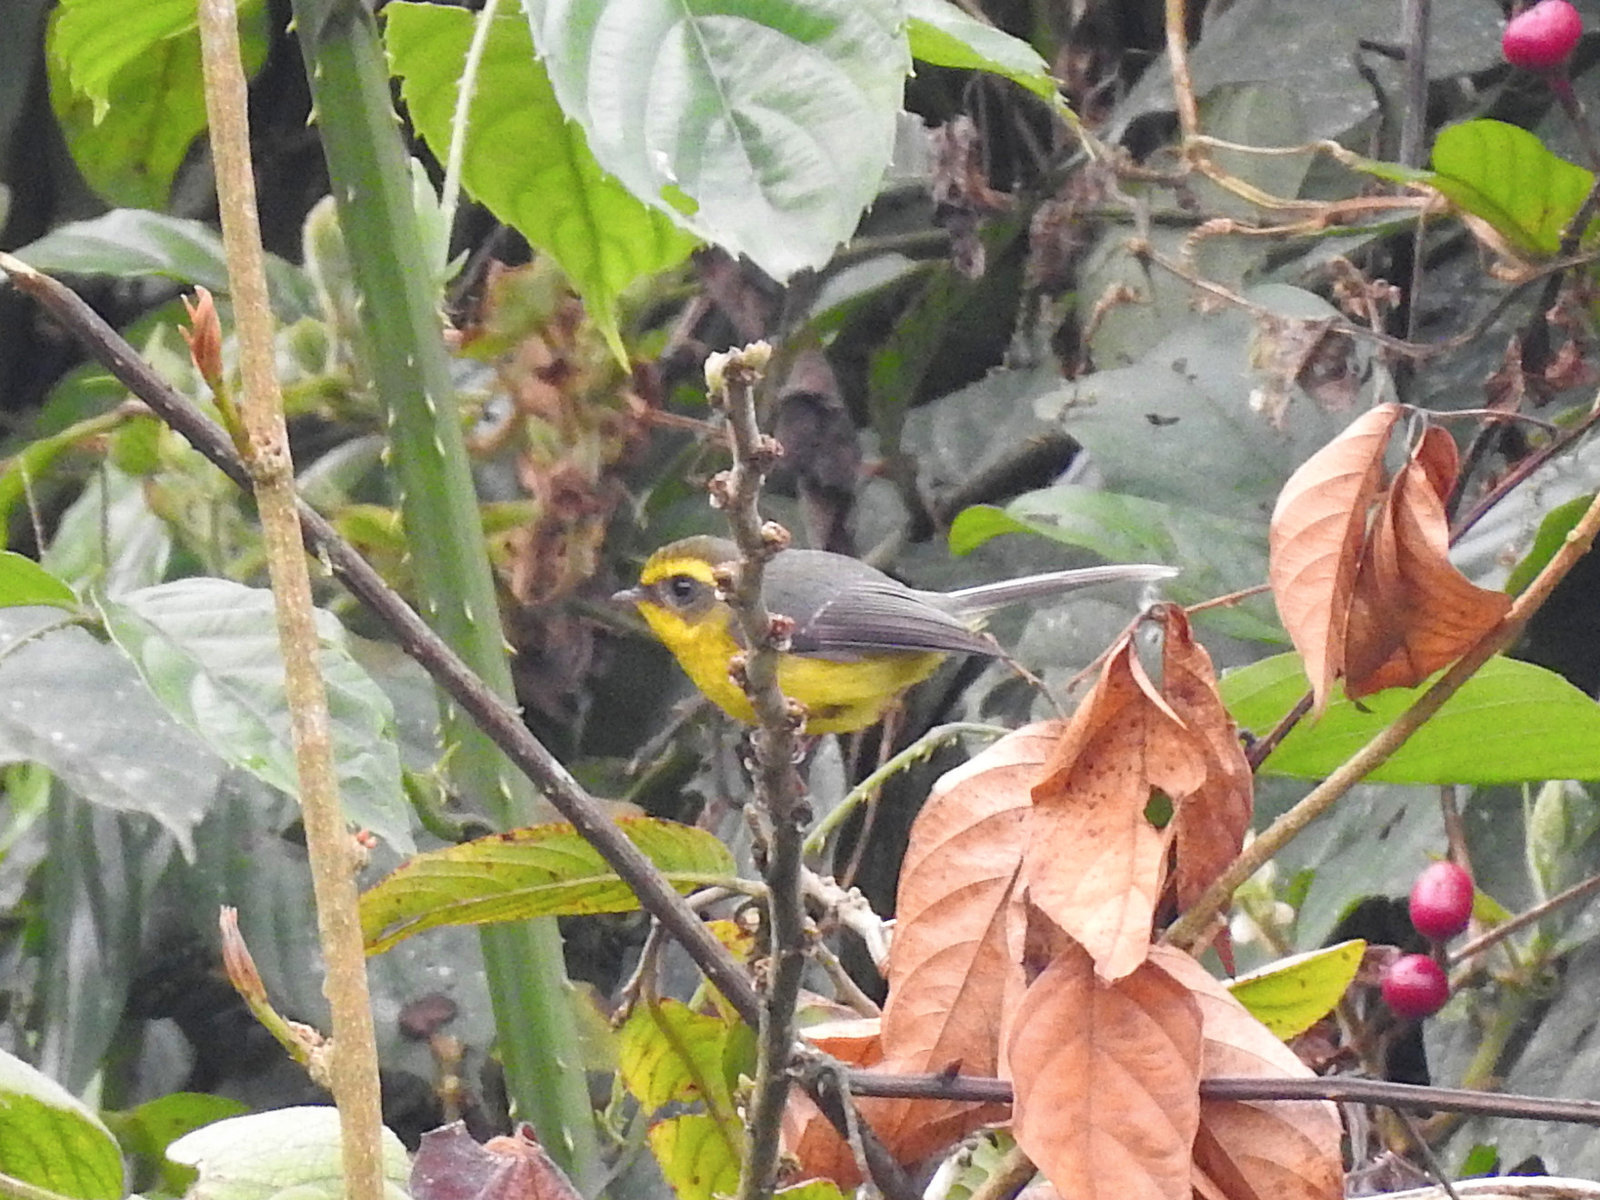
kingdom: Animalia
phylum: Chordata
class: Aves
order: Passeriformes
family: Stenostiridae
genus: Chelidorhynx
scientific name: Chelidorhynx hypoxantha
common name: Yellow-bellied fantail
